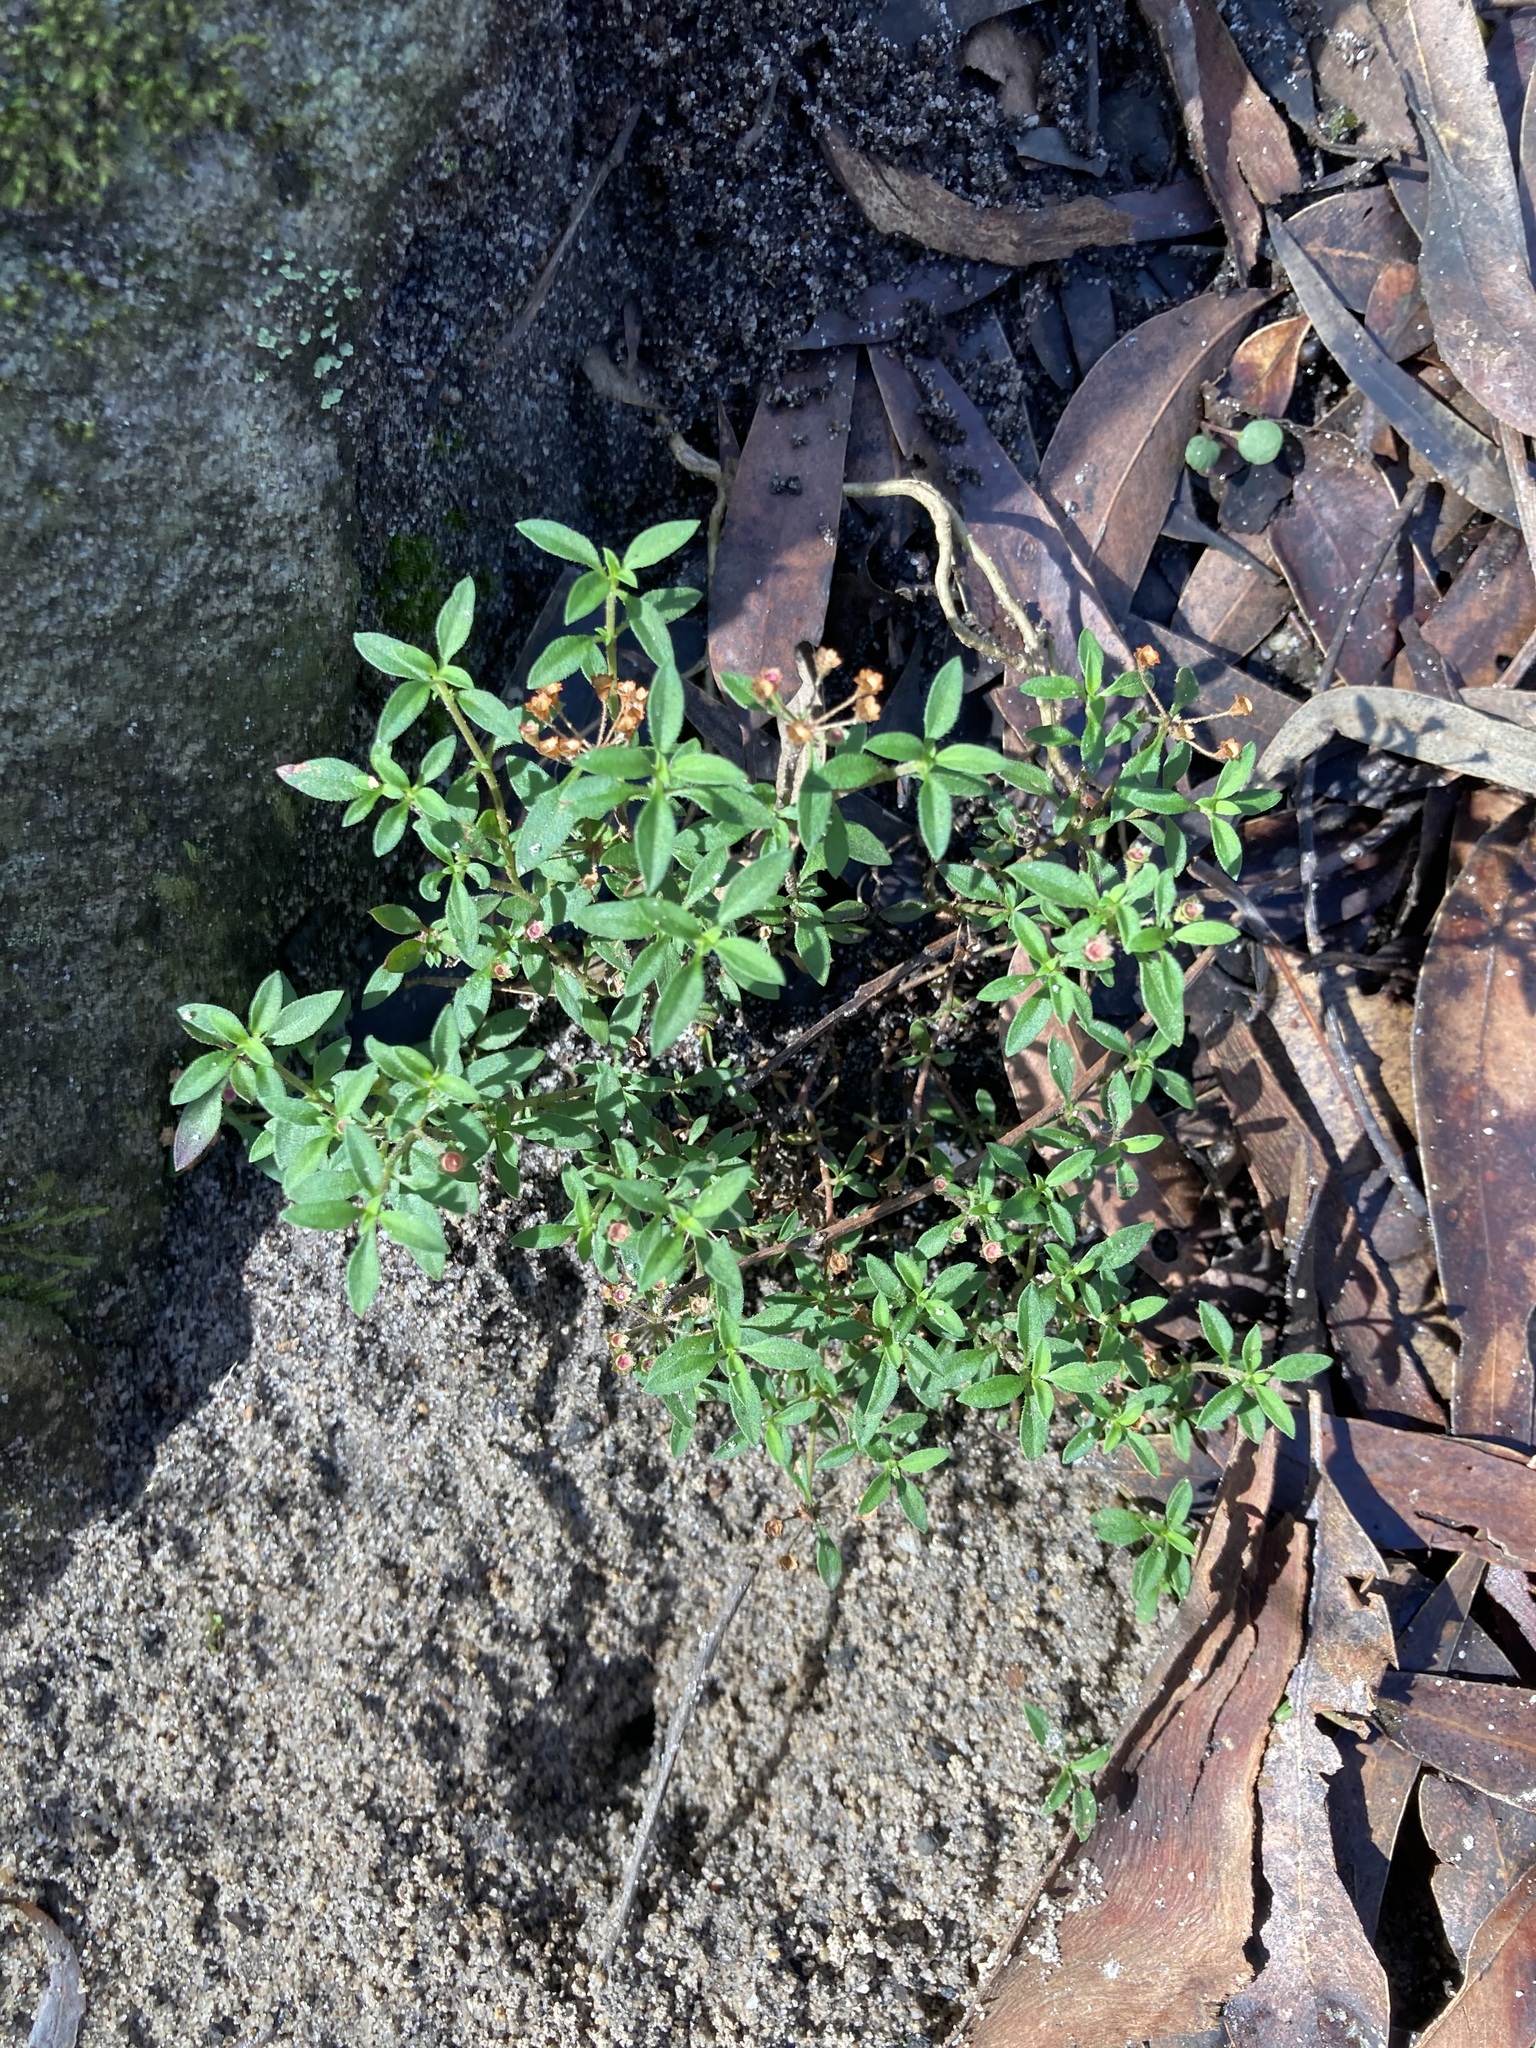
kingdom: Plantae
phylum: Tracheophyta
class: Magnoliopsida
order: Gentianales
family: Rubiaceae
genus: Pomax
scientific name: Pomax umbellata
